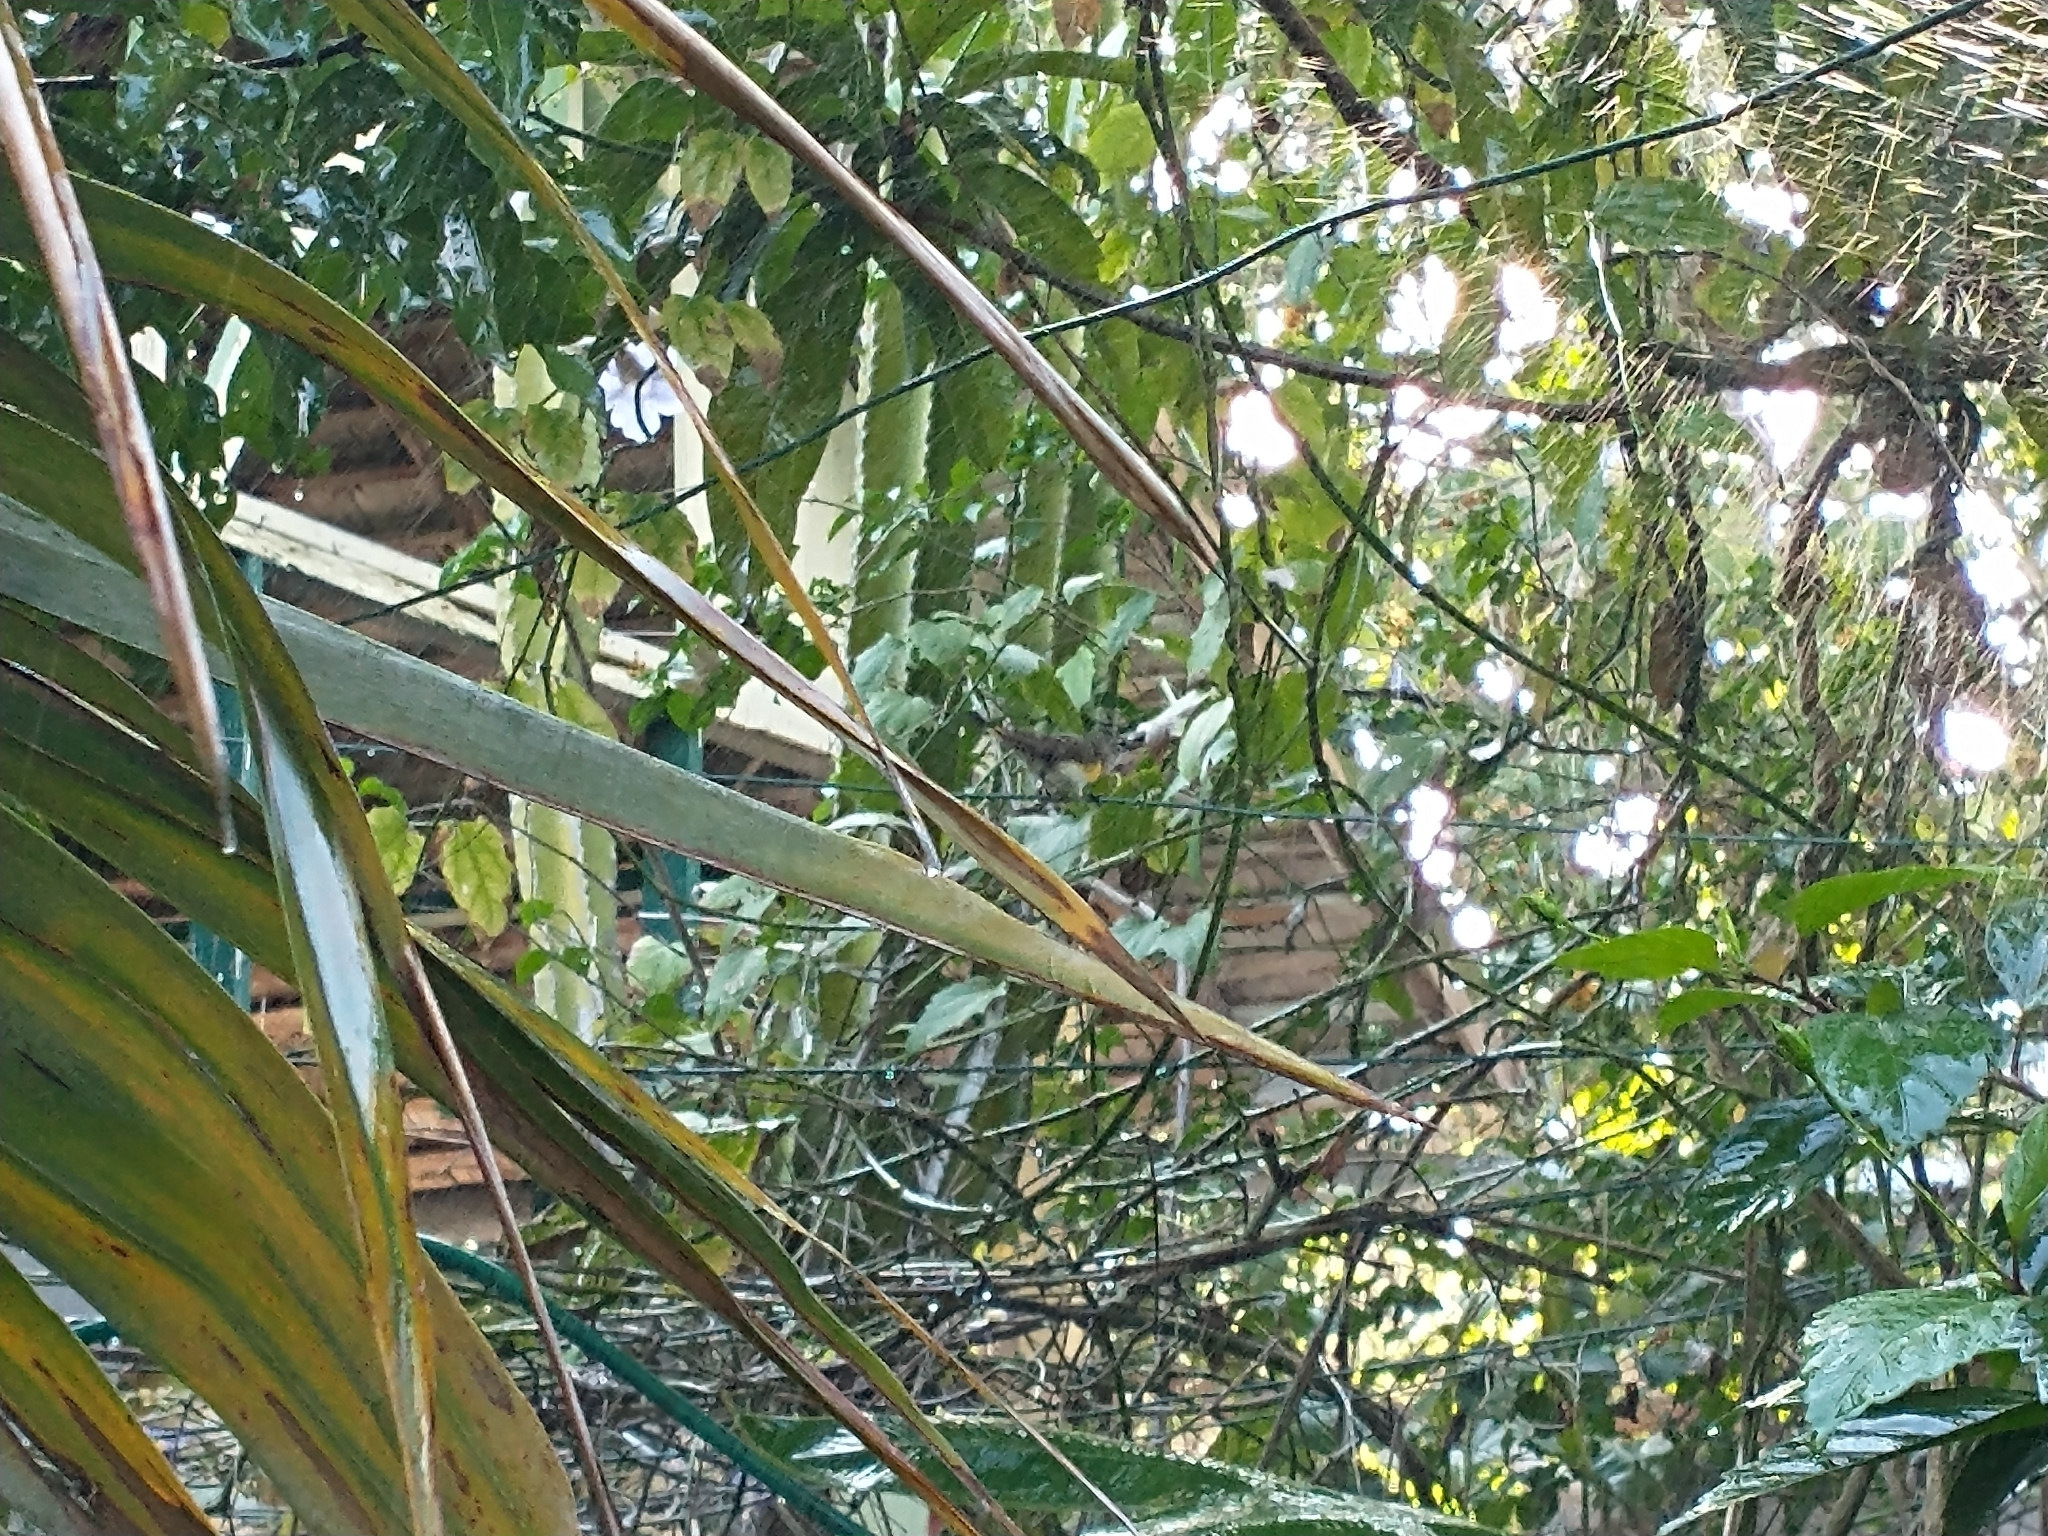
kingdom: Animalia
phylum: Chordata
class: Aves
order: Passeriformes
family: Parulidae
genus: Setophaga
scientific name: Setophaga ruticilla
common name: American redstart
